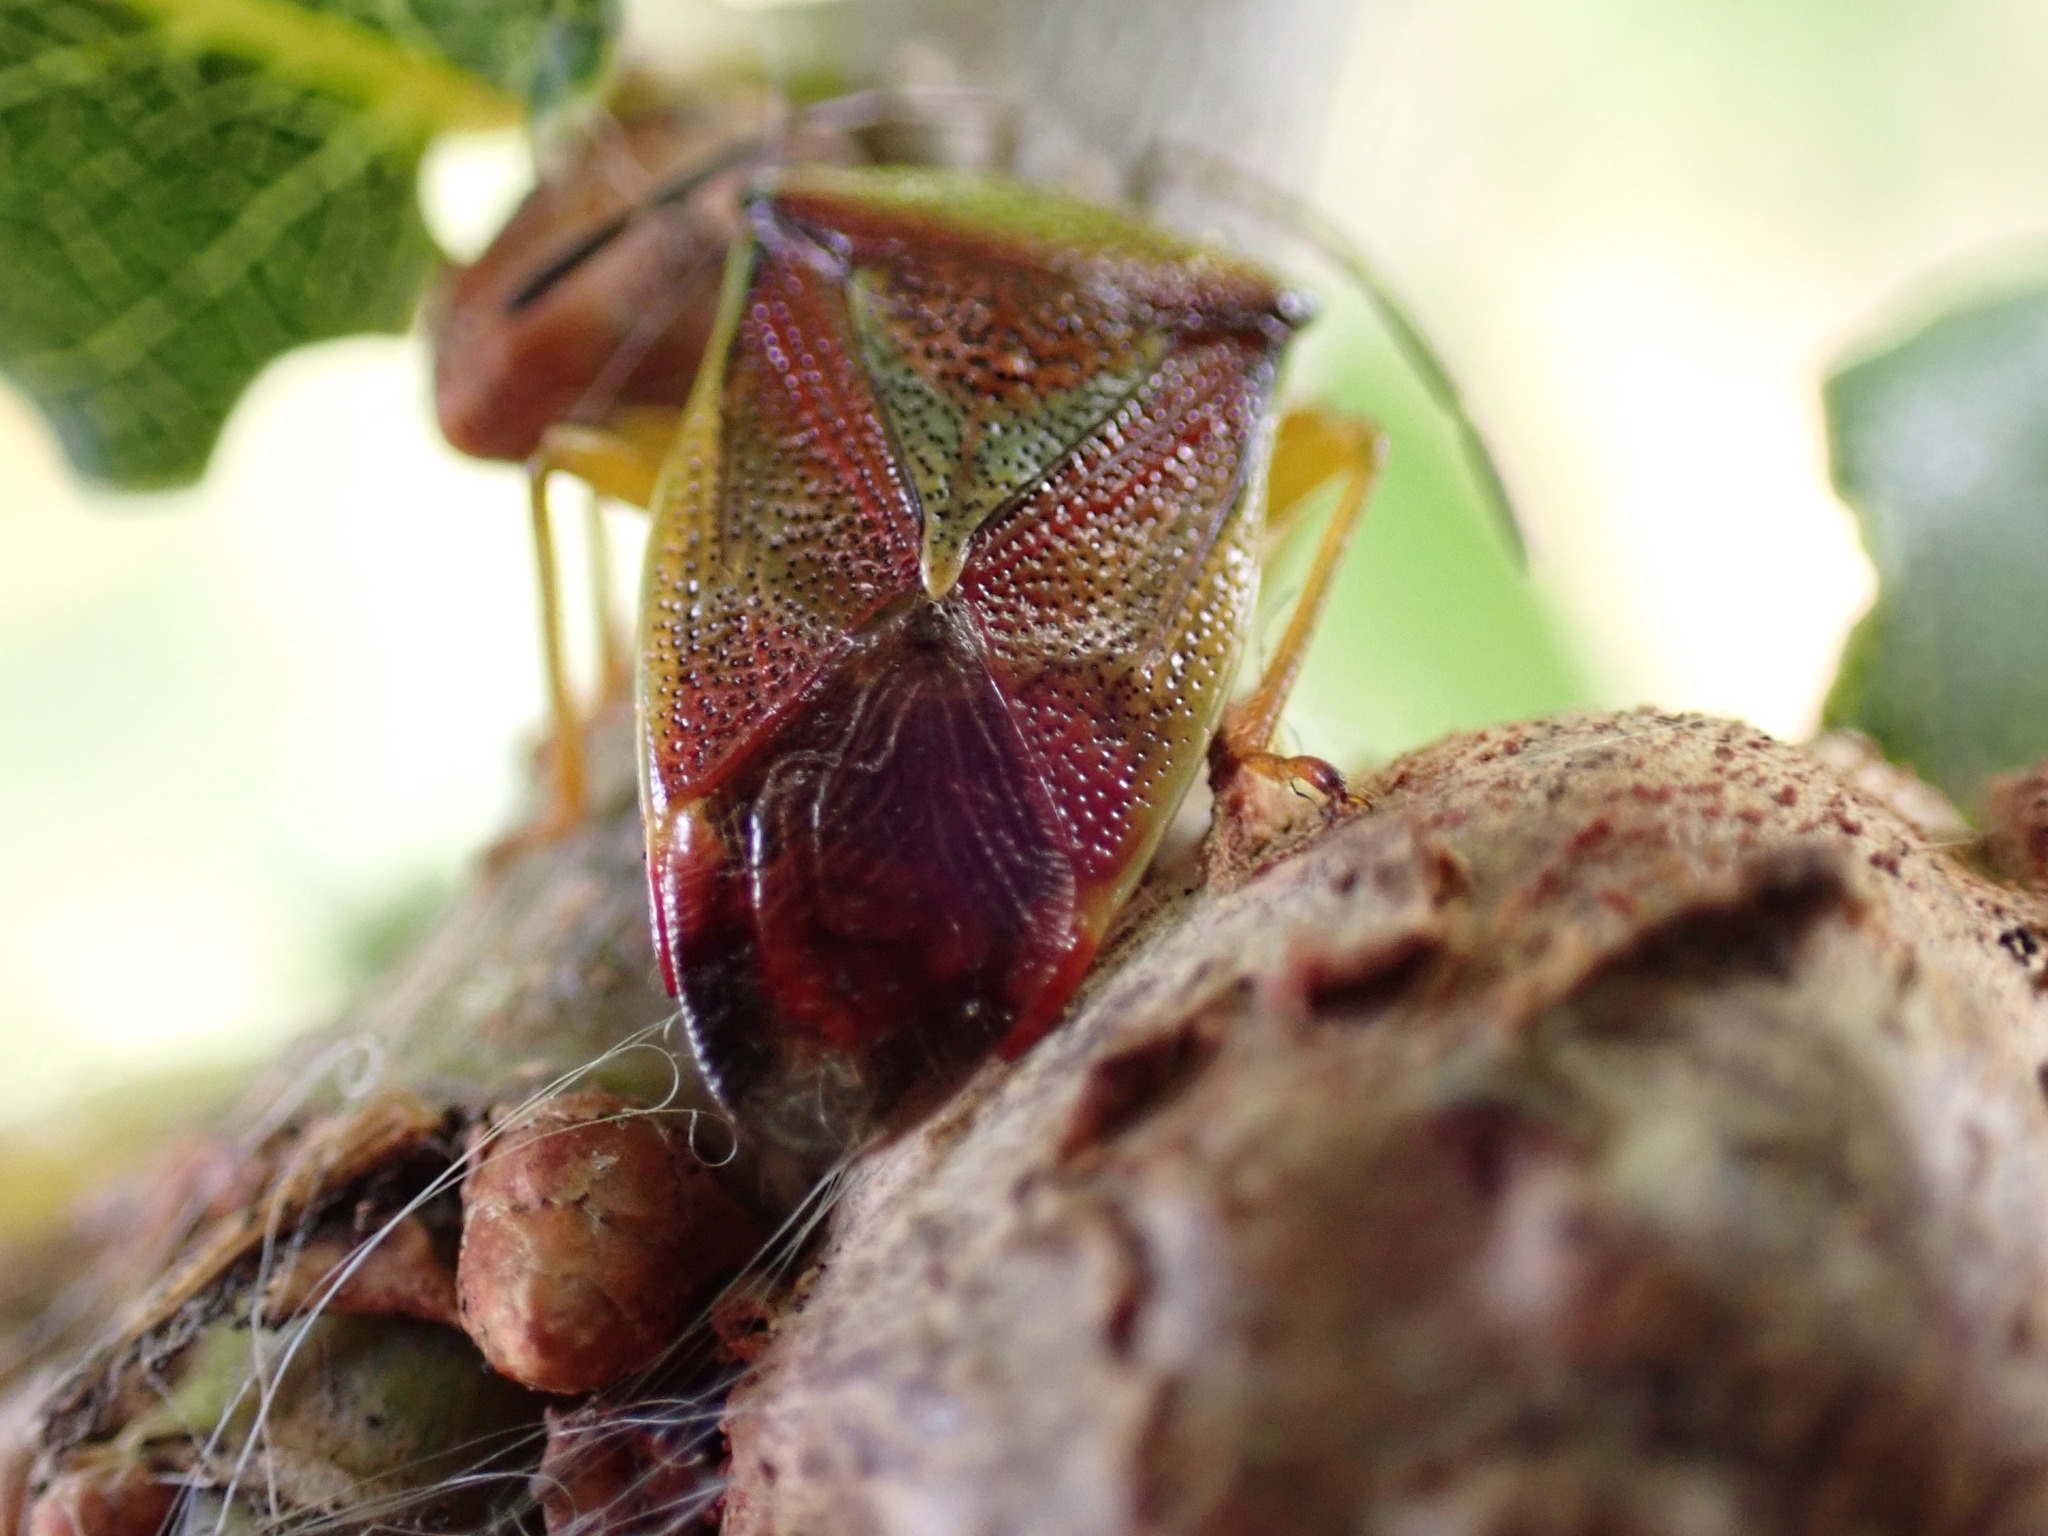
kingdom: Animalia
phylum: Arthropoda
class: Insecta
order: Hemiptera
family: Acanthosomatidae
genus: Elasmostethus
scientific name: Elasmostethus interstinctus
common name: Birch shieldbug
